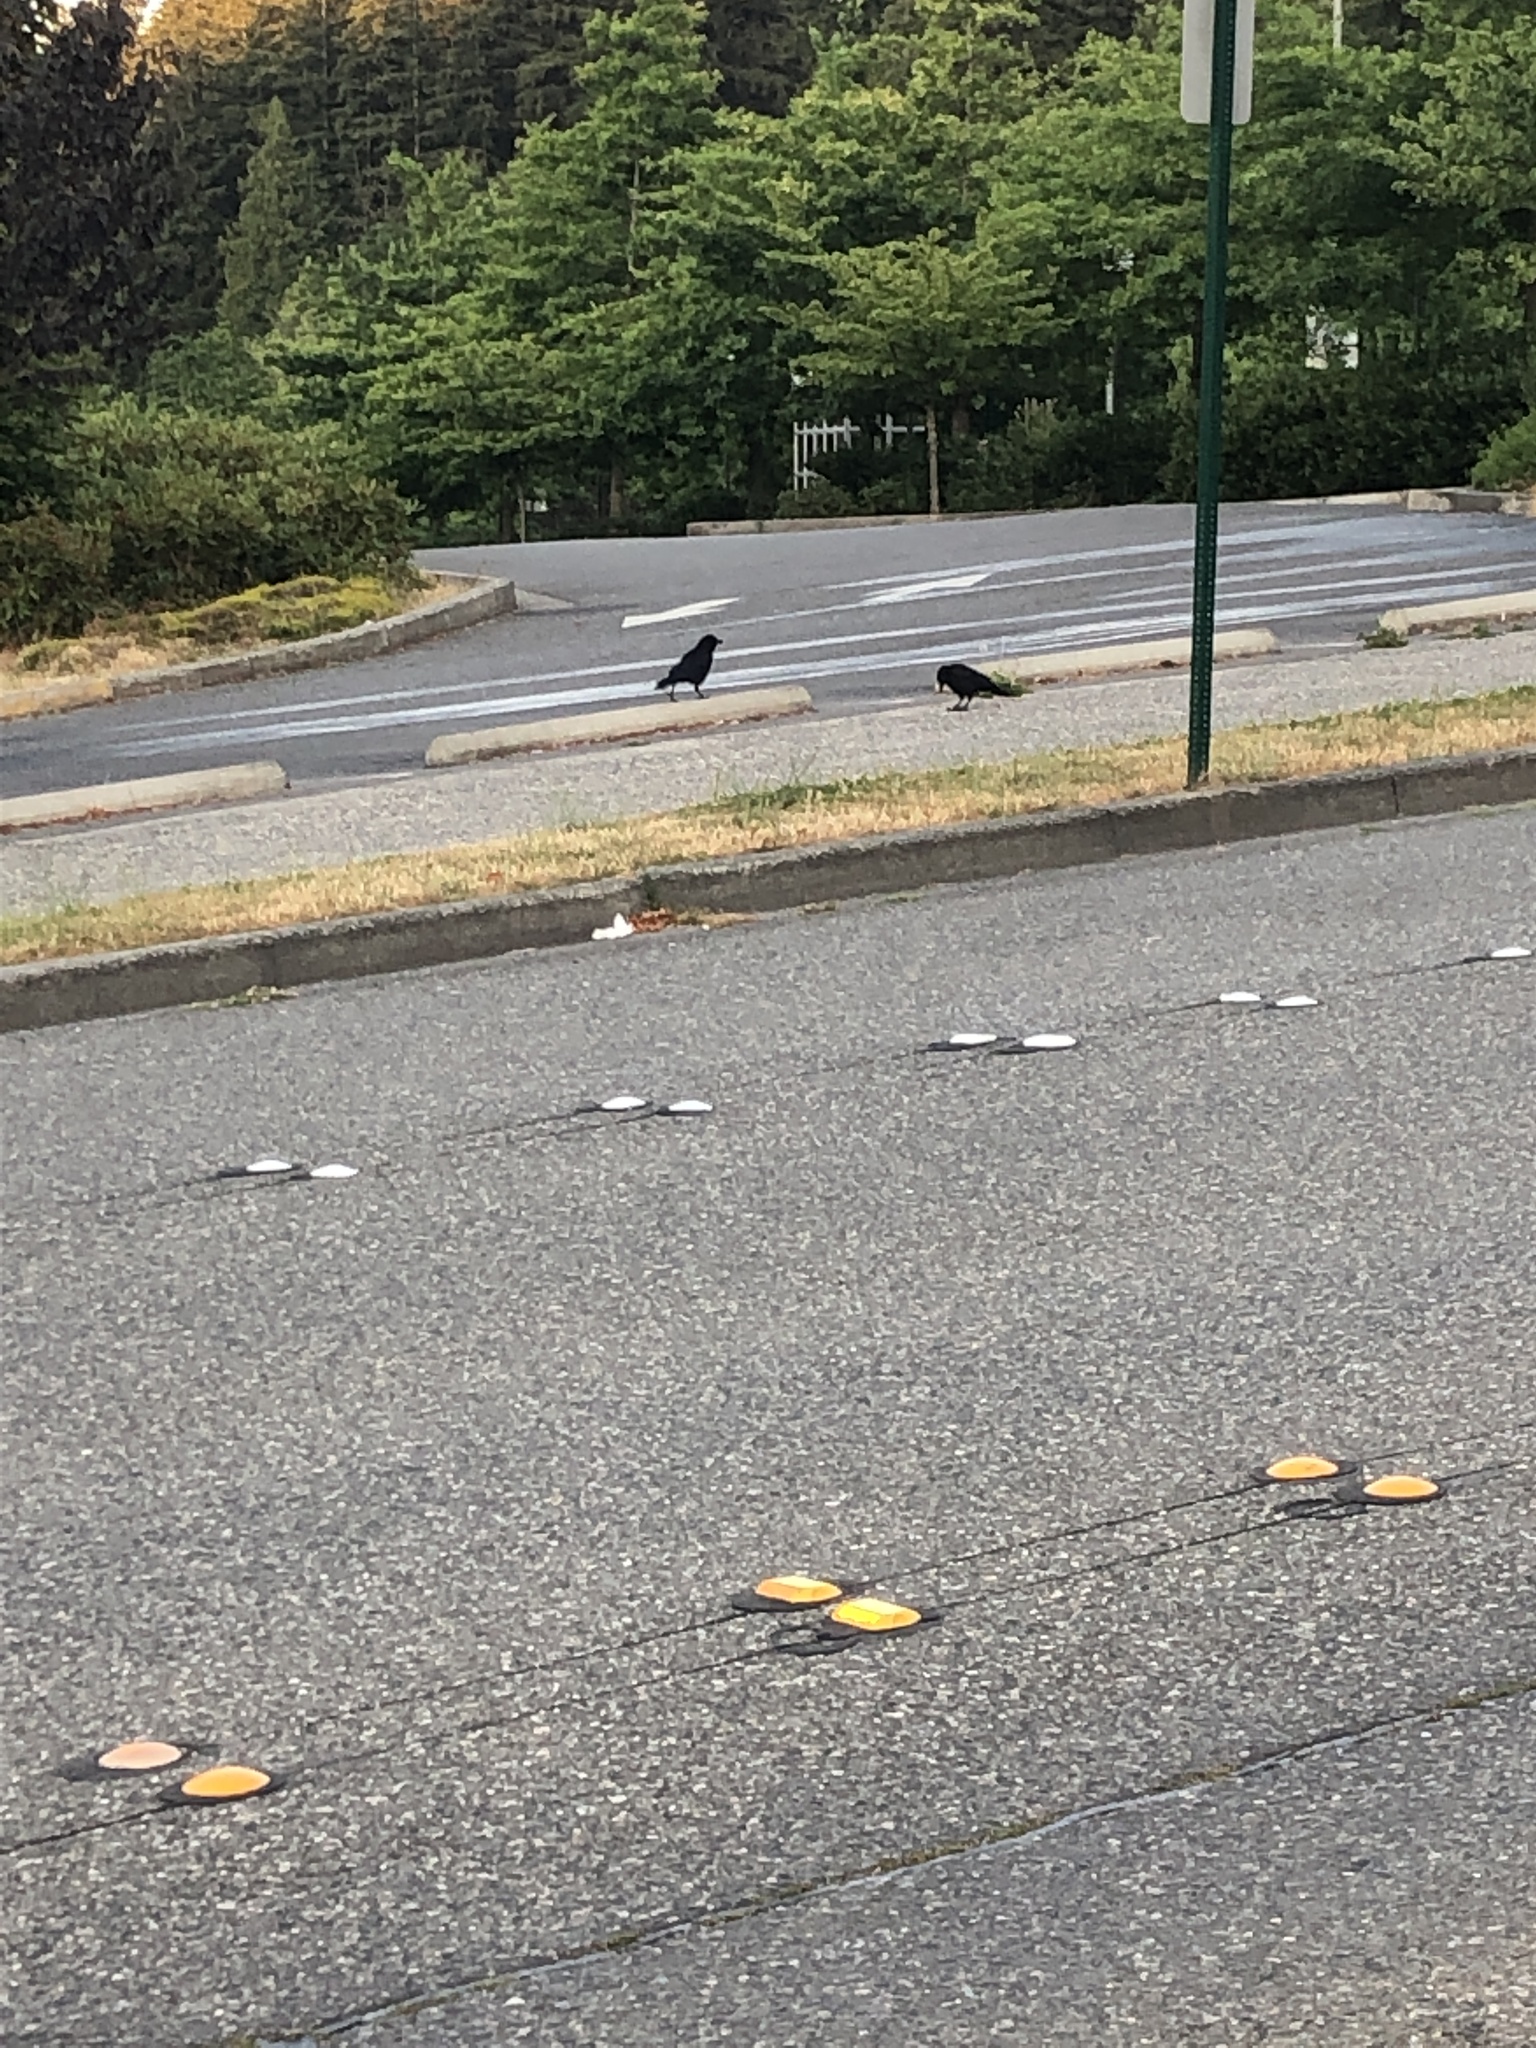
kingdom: Animalia
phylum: Chordata
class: Aves
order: Passeriformes
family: Corvidae
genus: Corvus
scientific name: Corvus brachyrhynchos
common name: American crow
